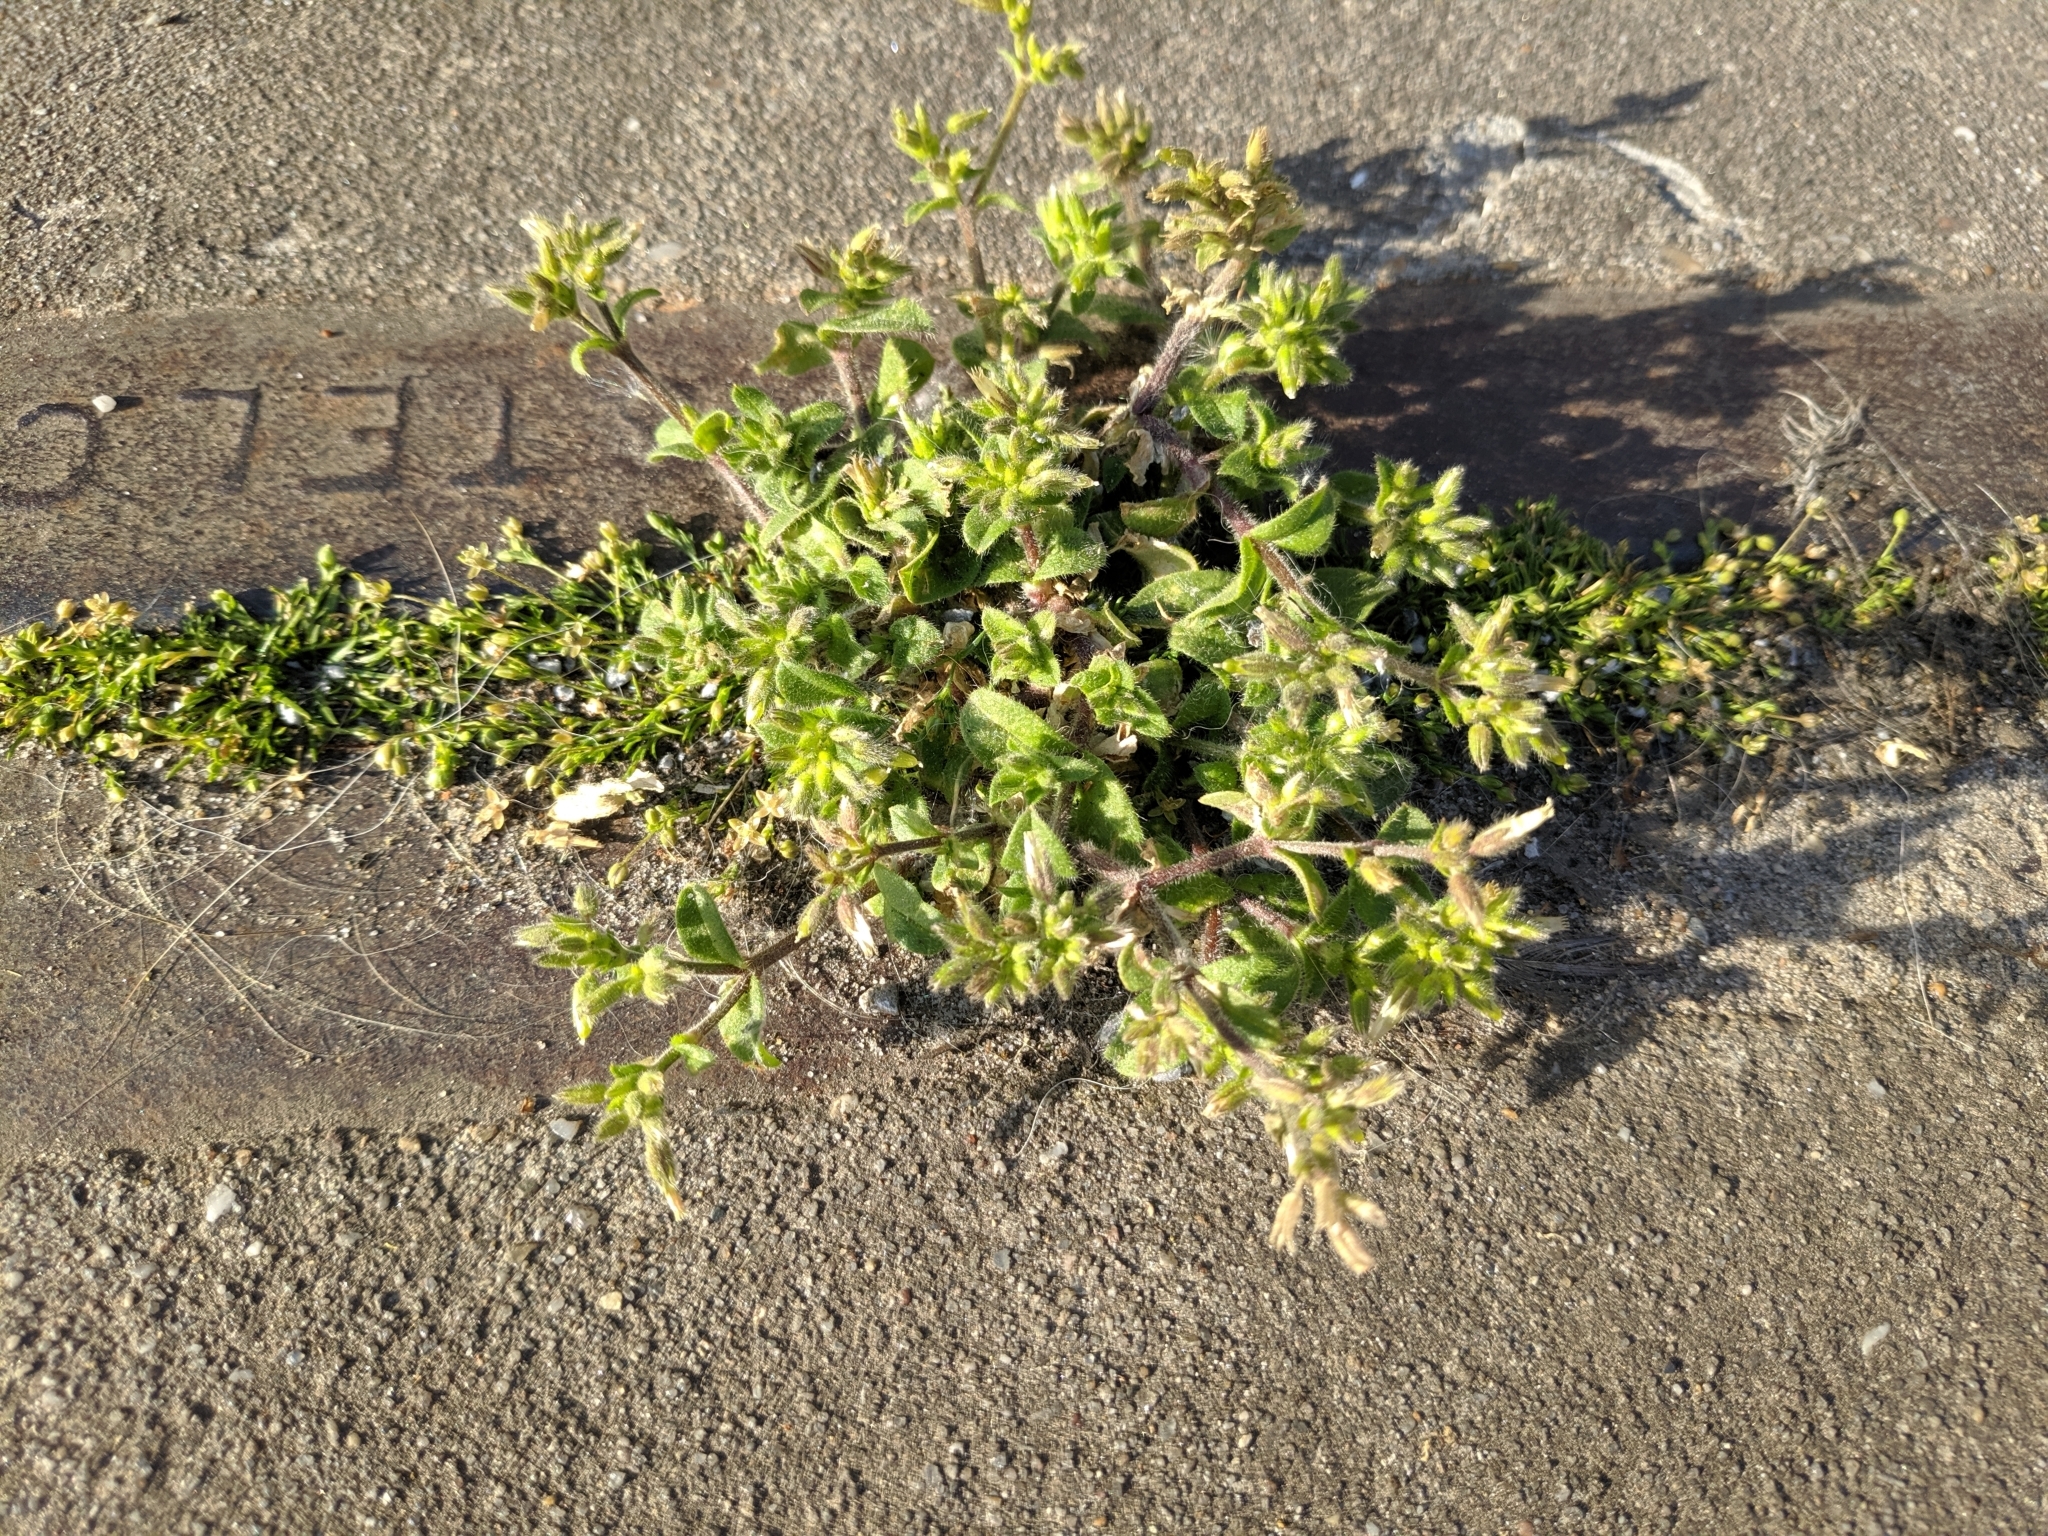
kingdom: Plantae
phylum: Tracheophyta
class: Magnoliopsida
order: Caryophyllales
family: Caryophyllaceae
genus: Sagina
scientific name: Sagina procumbens
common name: Procumbent pearlwort
